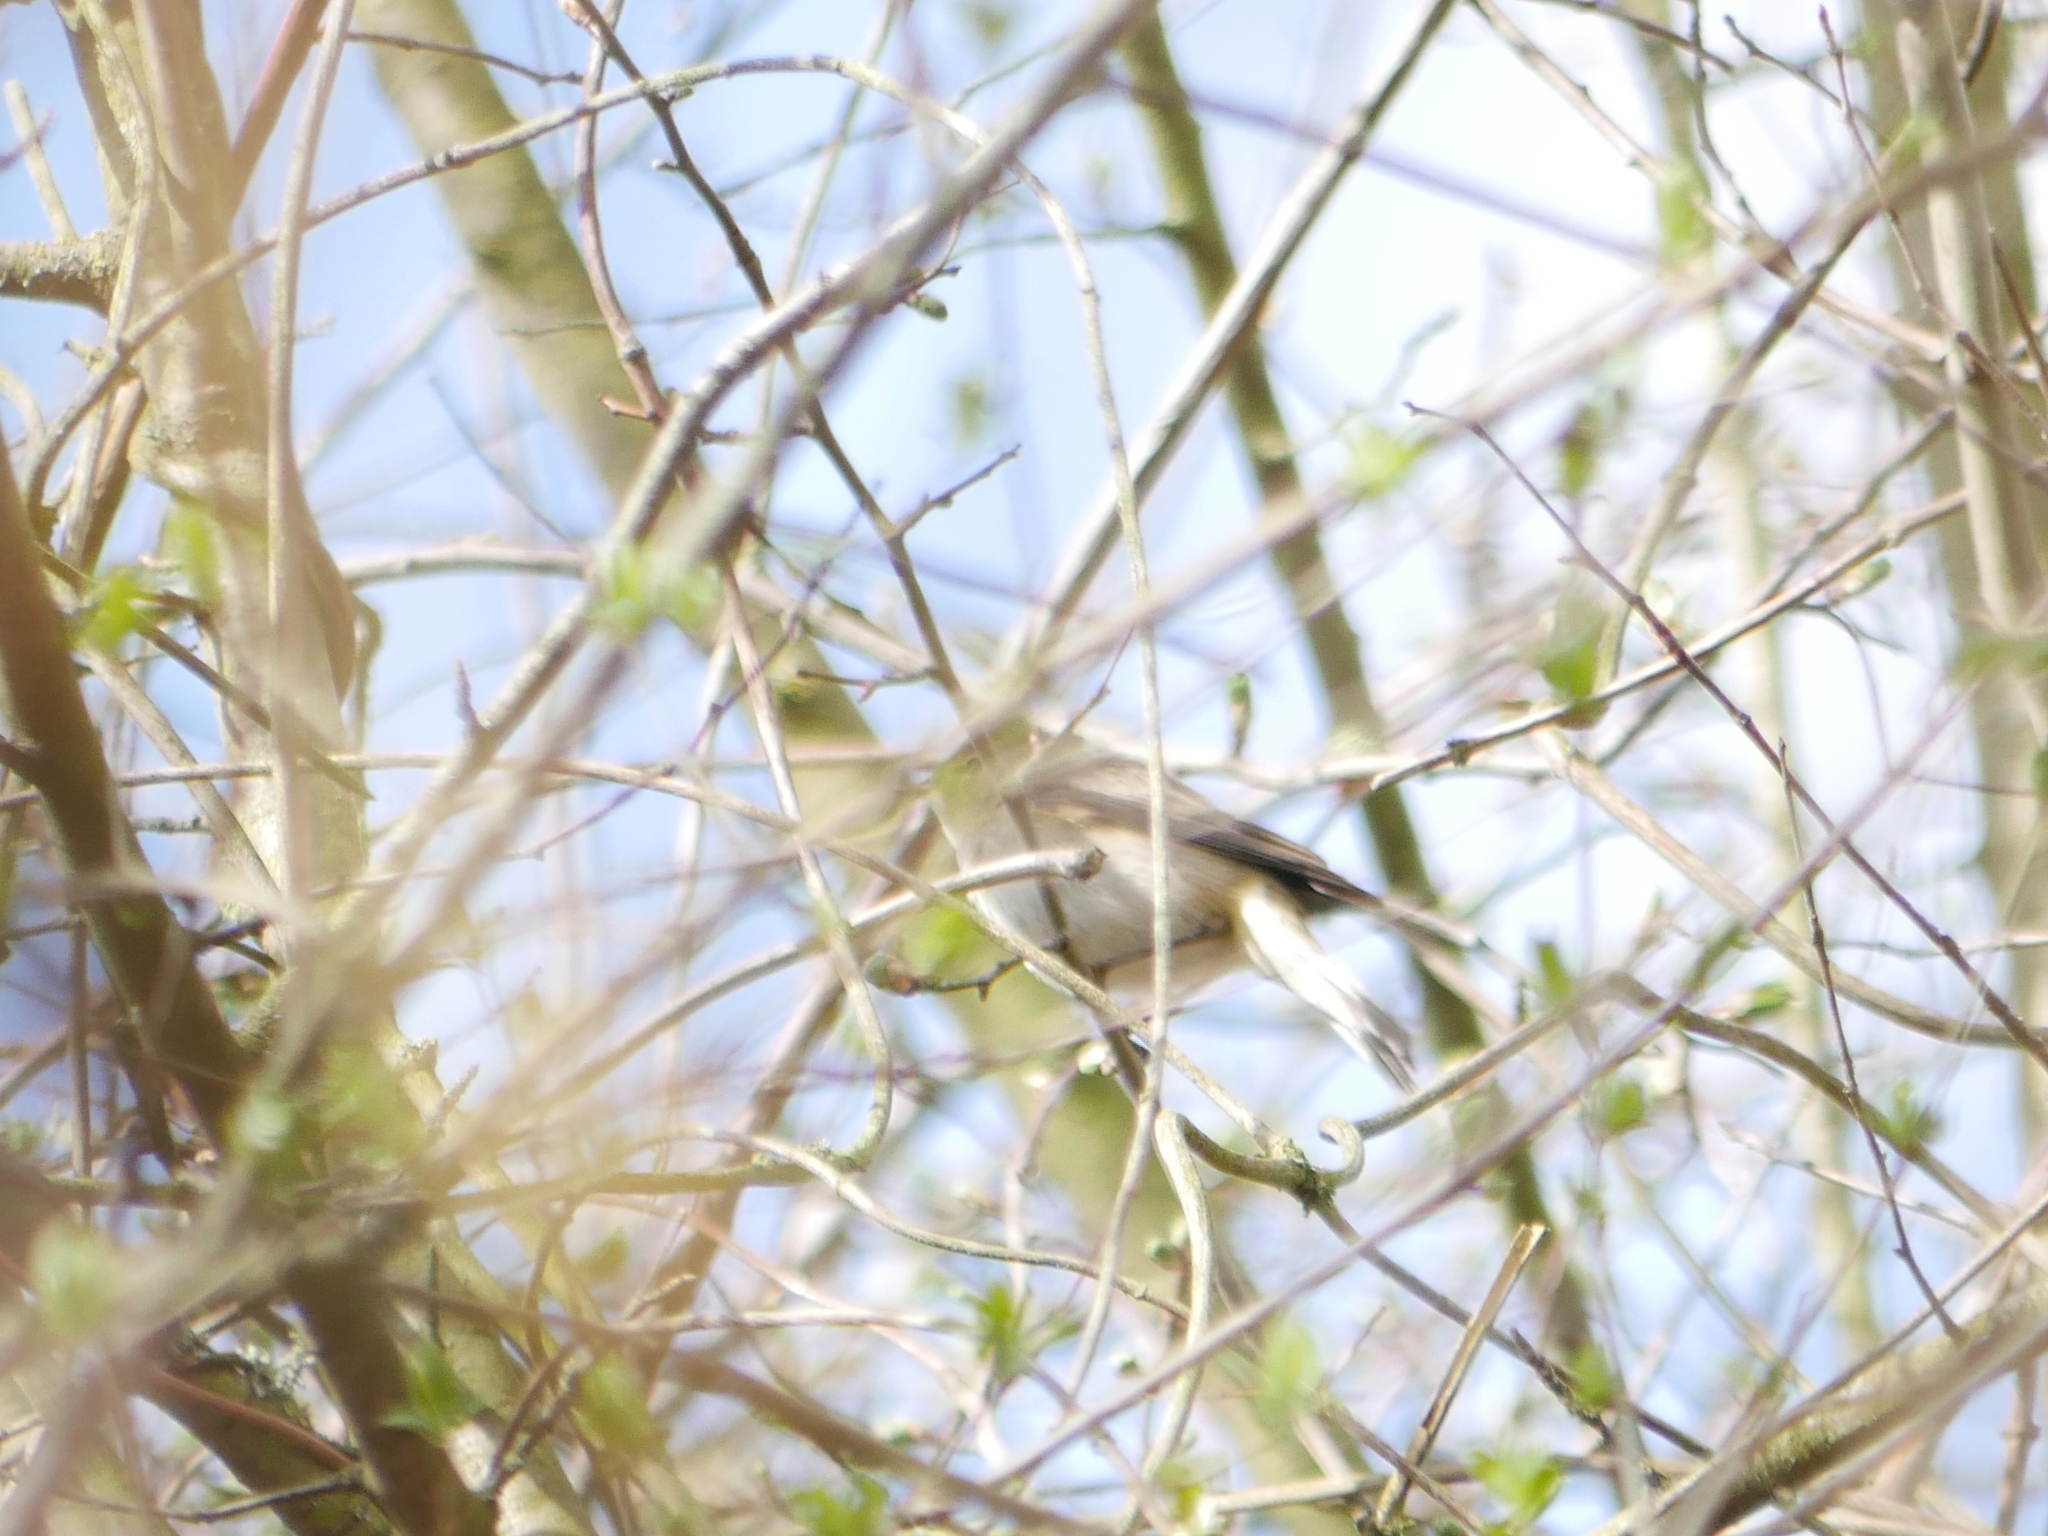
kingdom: Animalia
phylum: Chordata
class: Aves
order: Passeriformes
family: Phylloscopidae
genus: Phylloscopus
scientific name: Phylloscopus collybita
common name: Common chiffchaff
